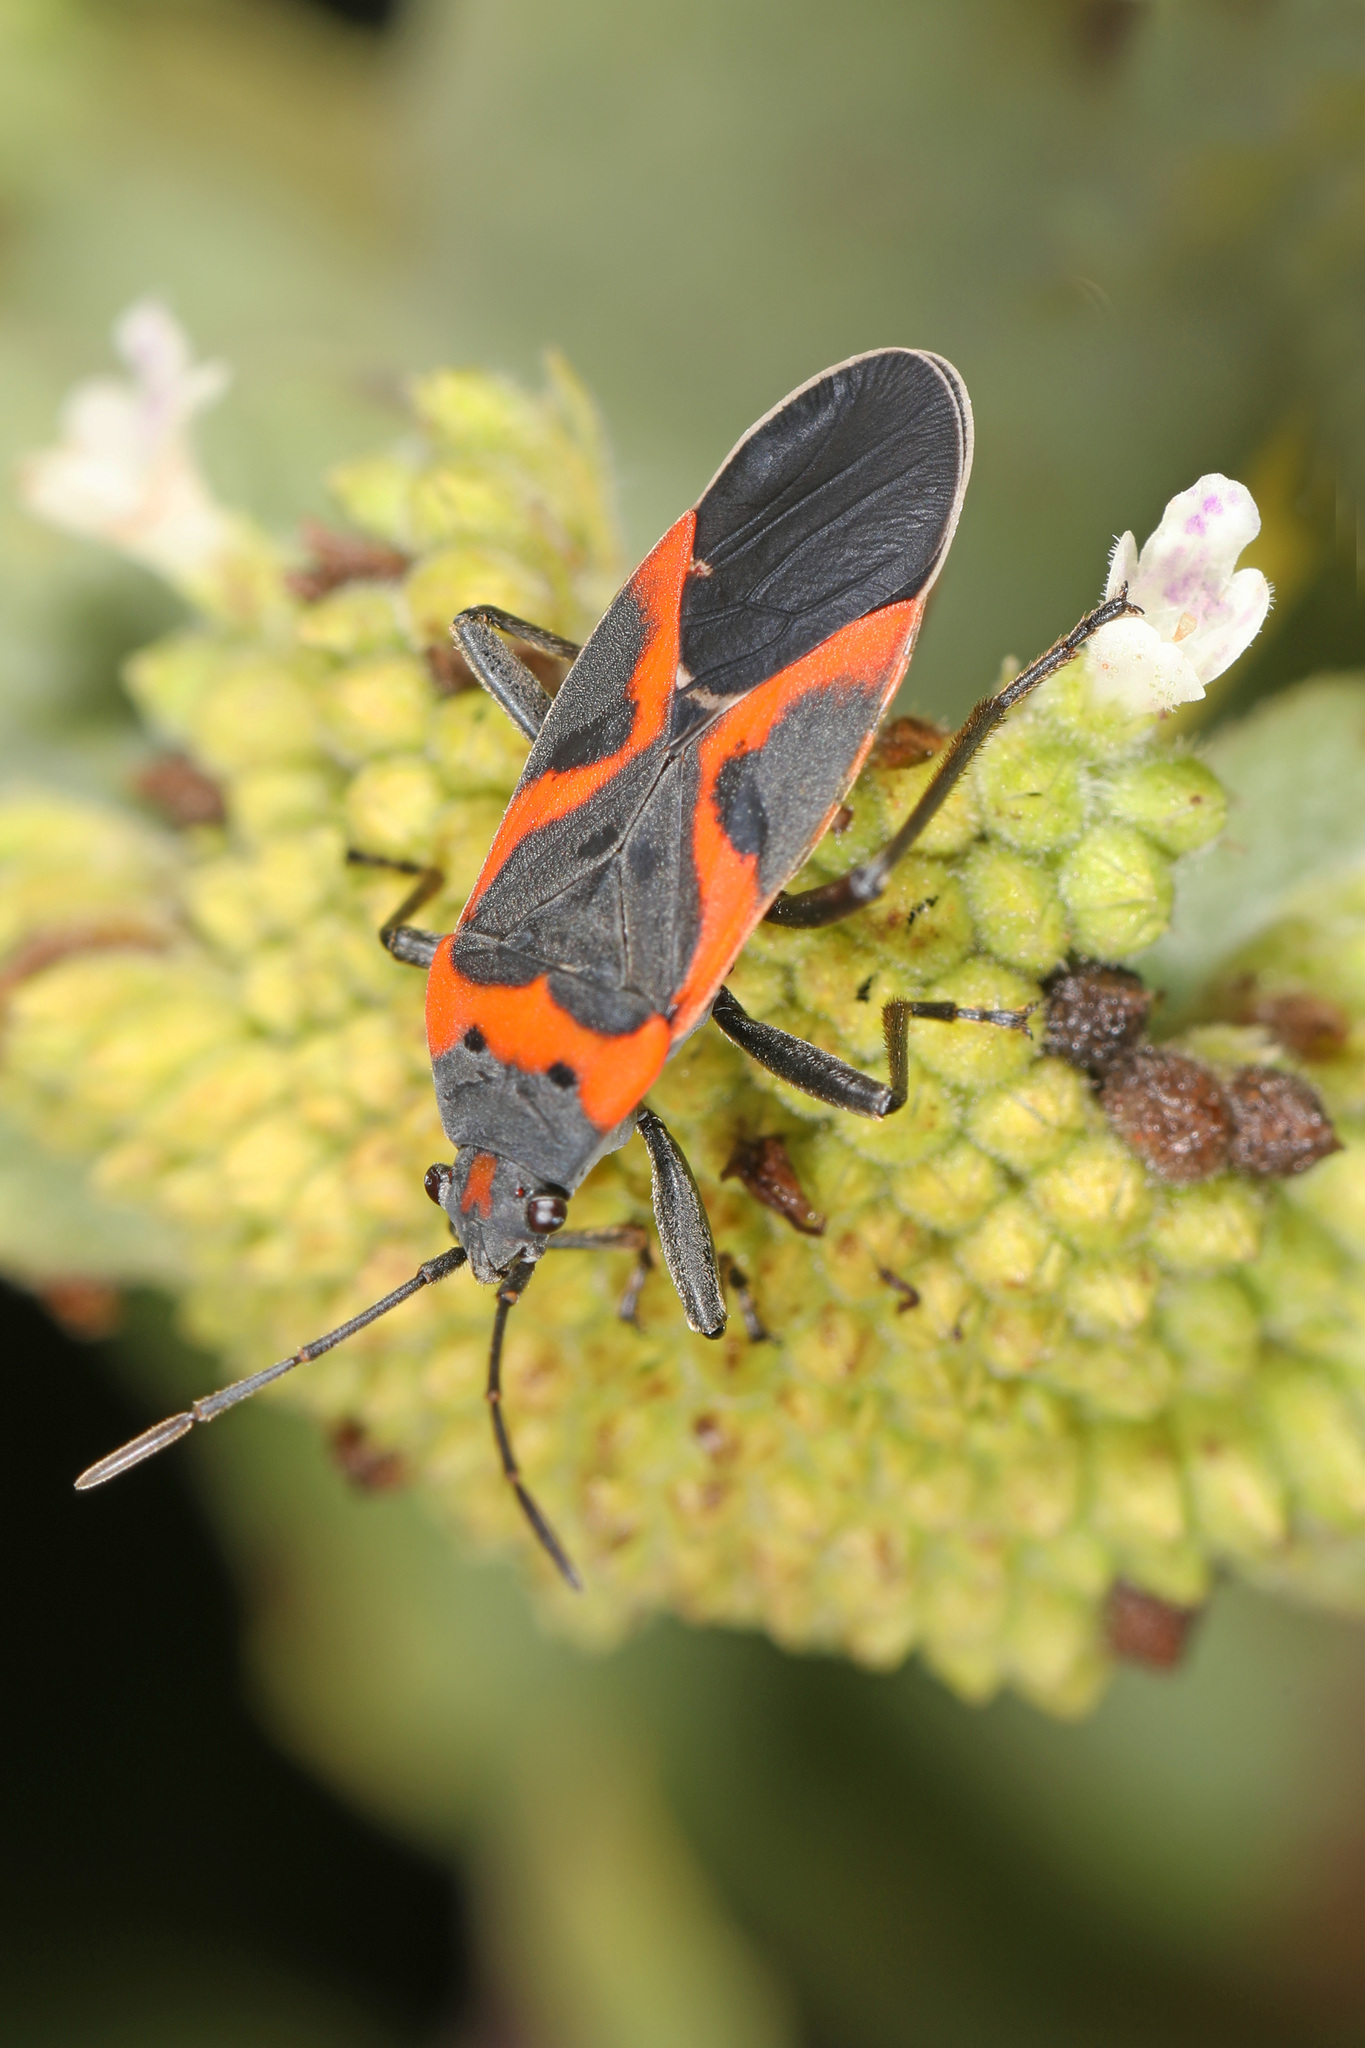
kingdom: Animalia
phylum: Arthropoda
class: Insecta
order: Hemiptera
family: Lygaeidae
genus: Lygaeus
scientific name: Lygaeus kalmii
